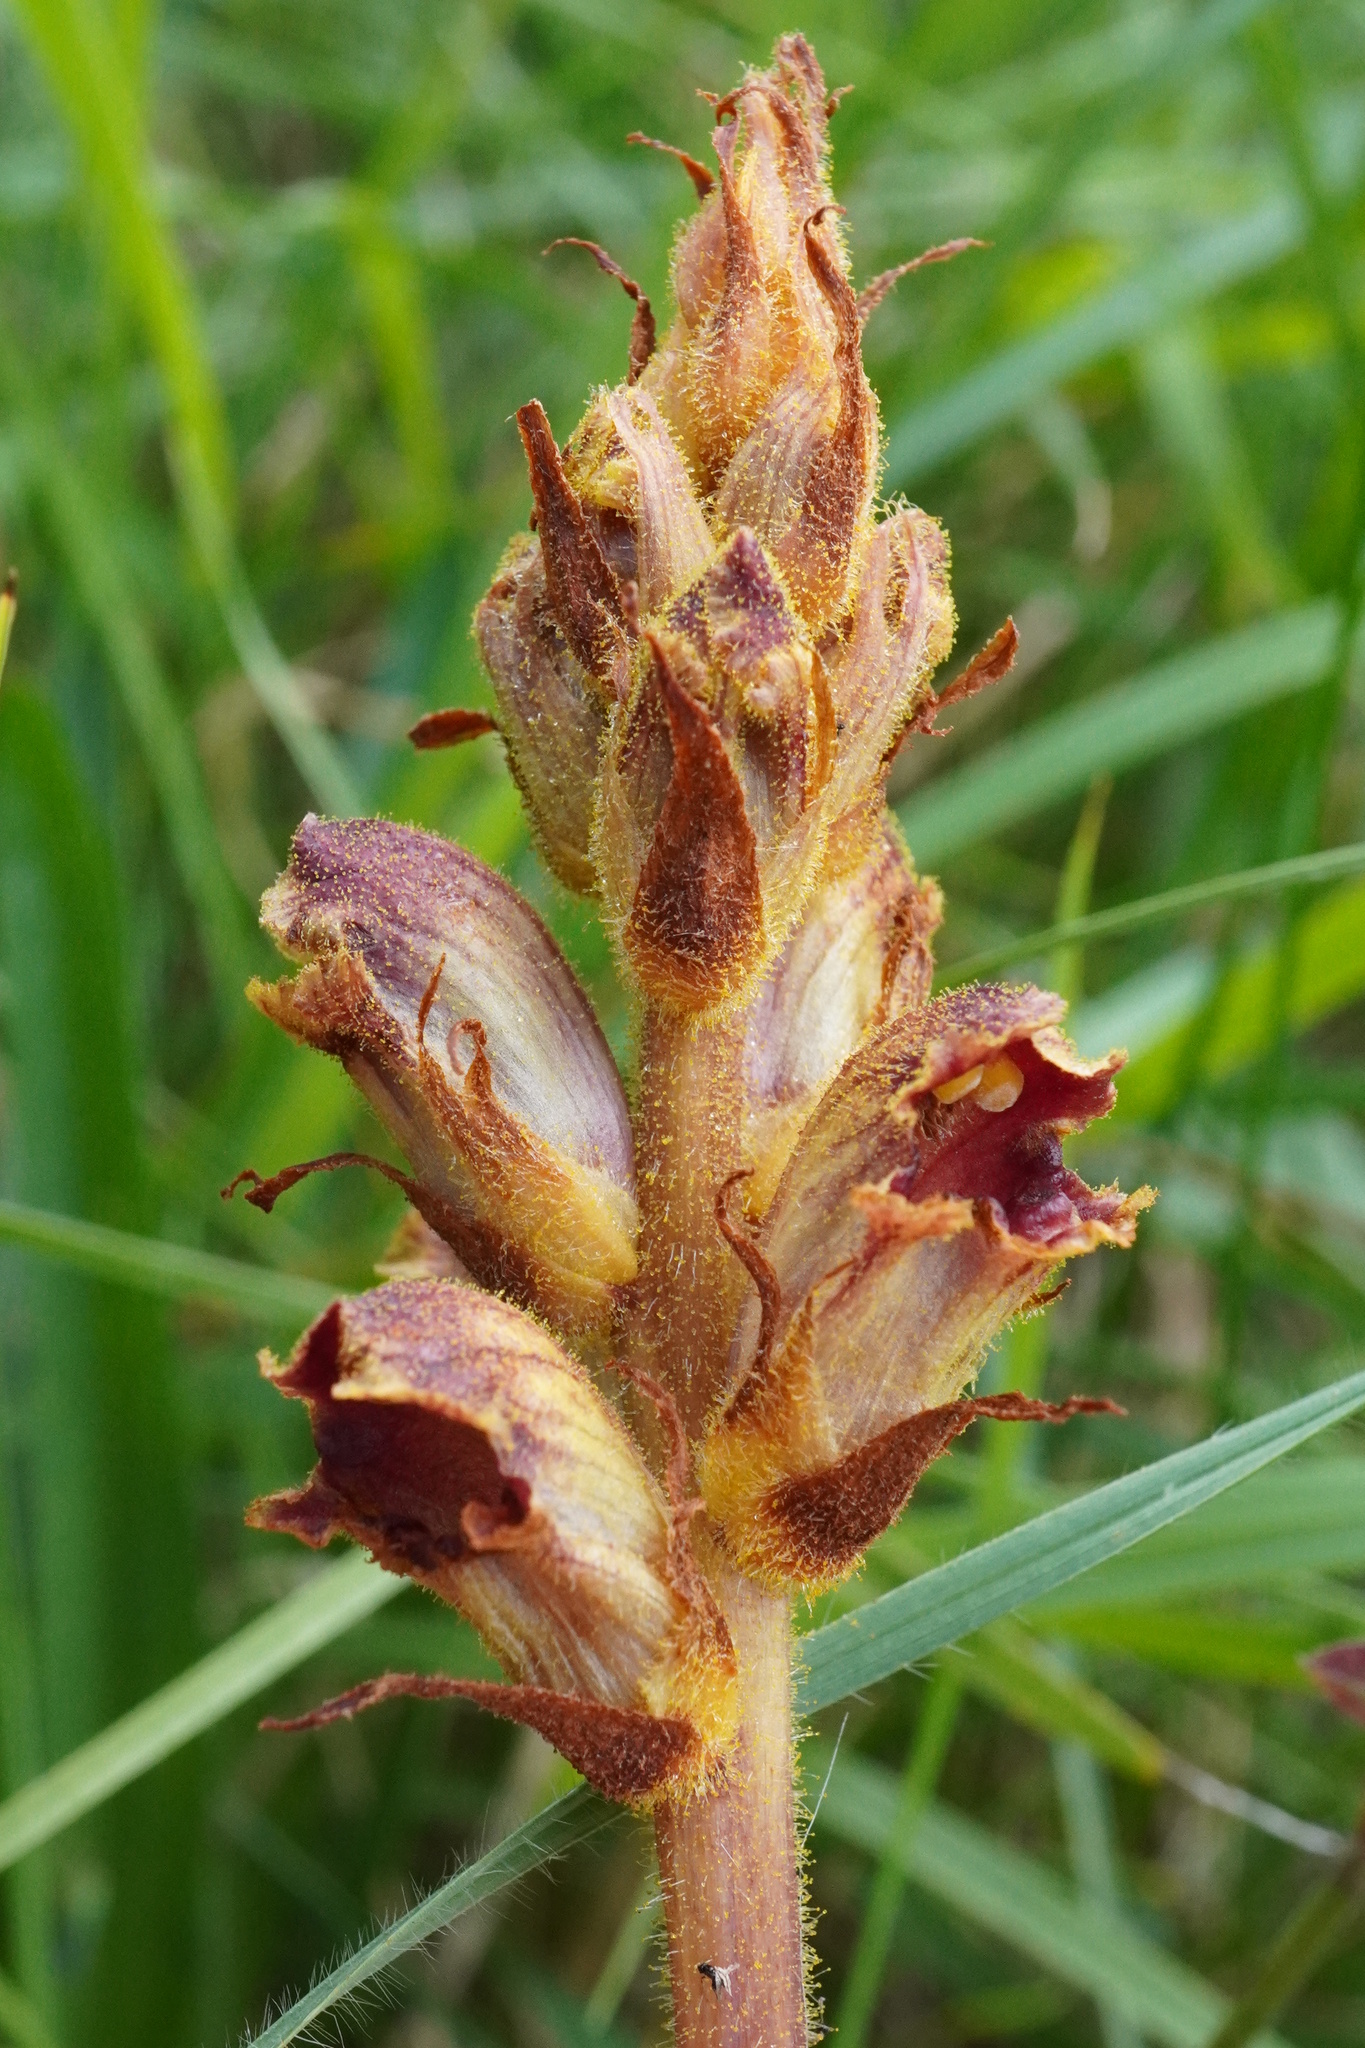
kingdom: Plantae
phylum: Tracheophyta
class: Magnoliopsida
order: Lamiales
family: Orobanchaceae
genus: Orobanche
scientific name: Orobanche gracilis
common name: Slender broomrape
